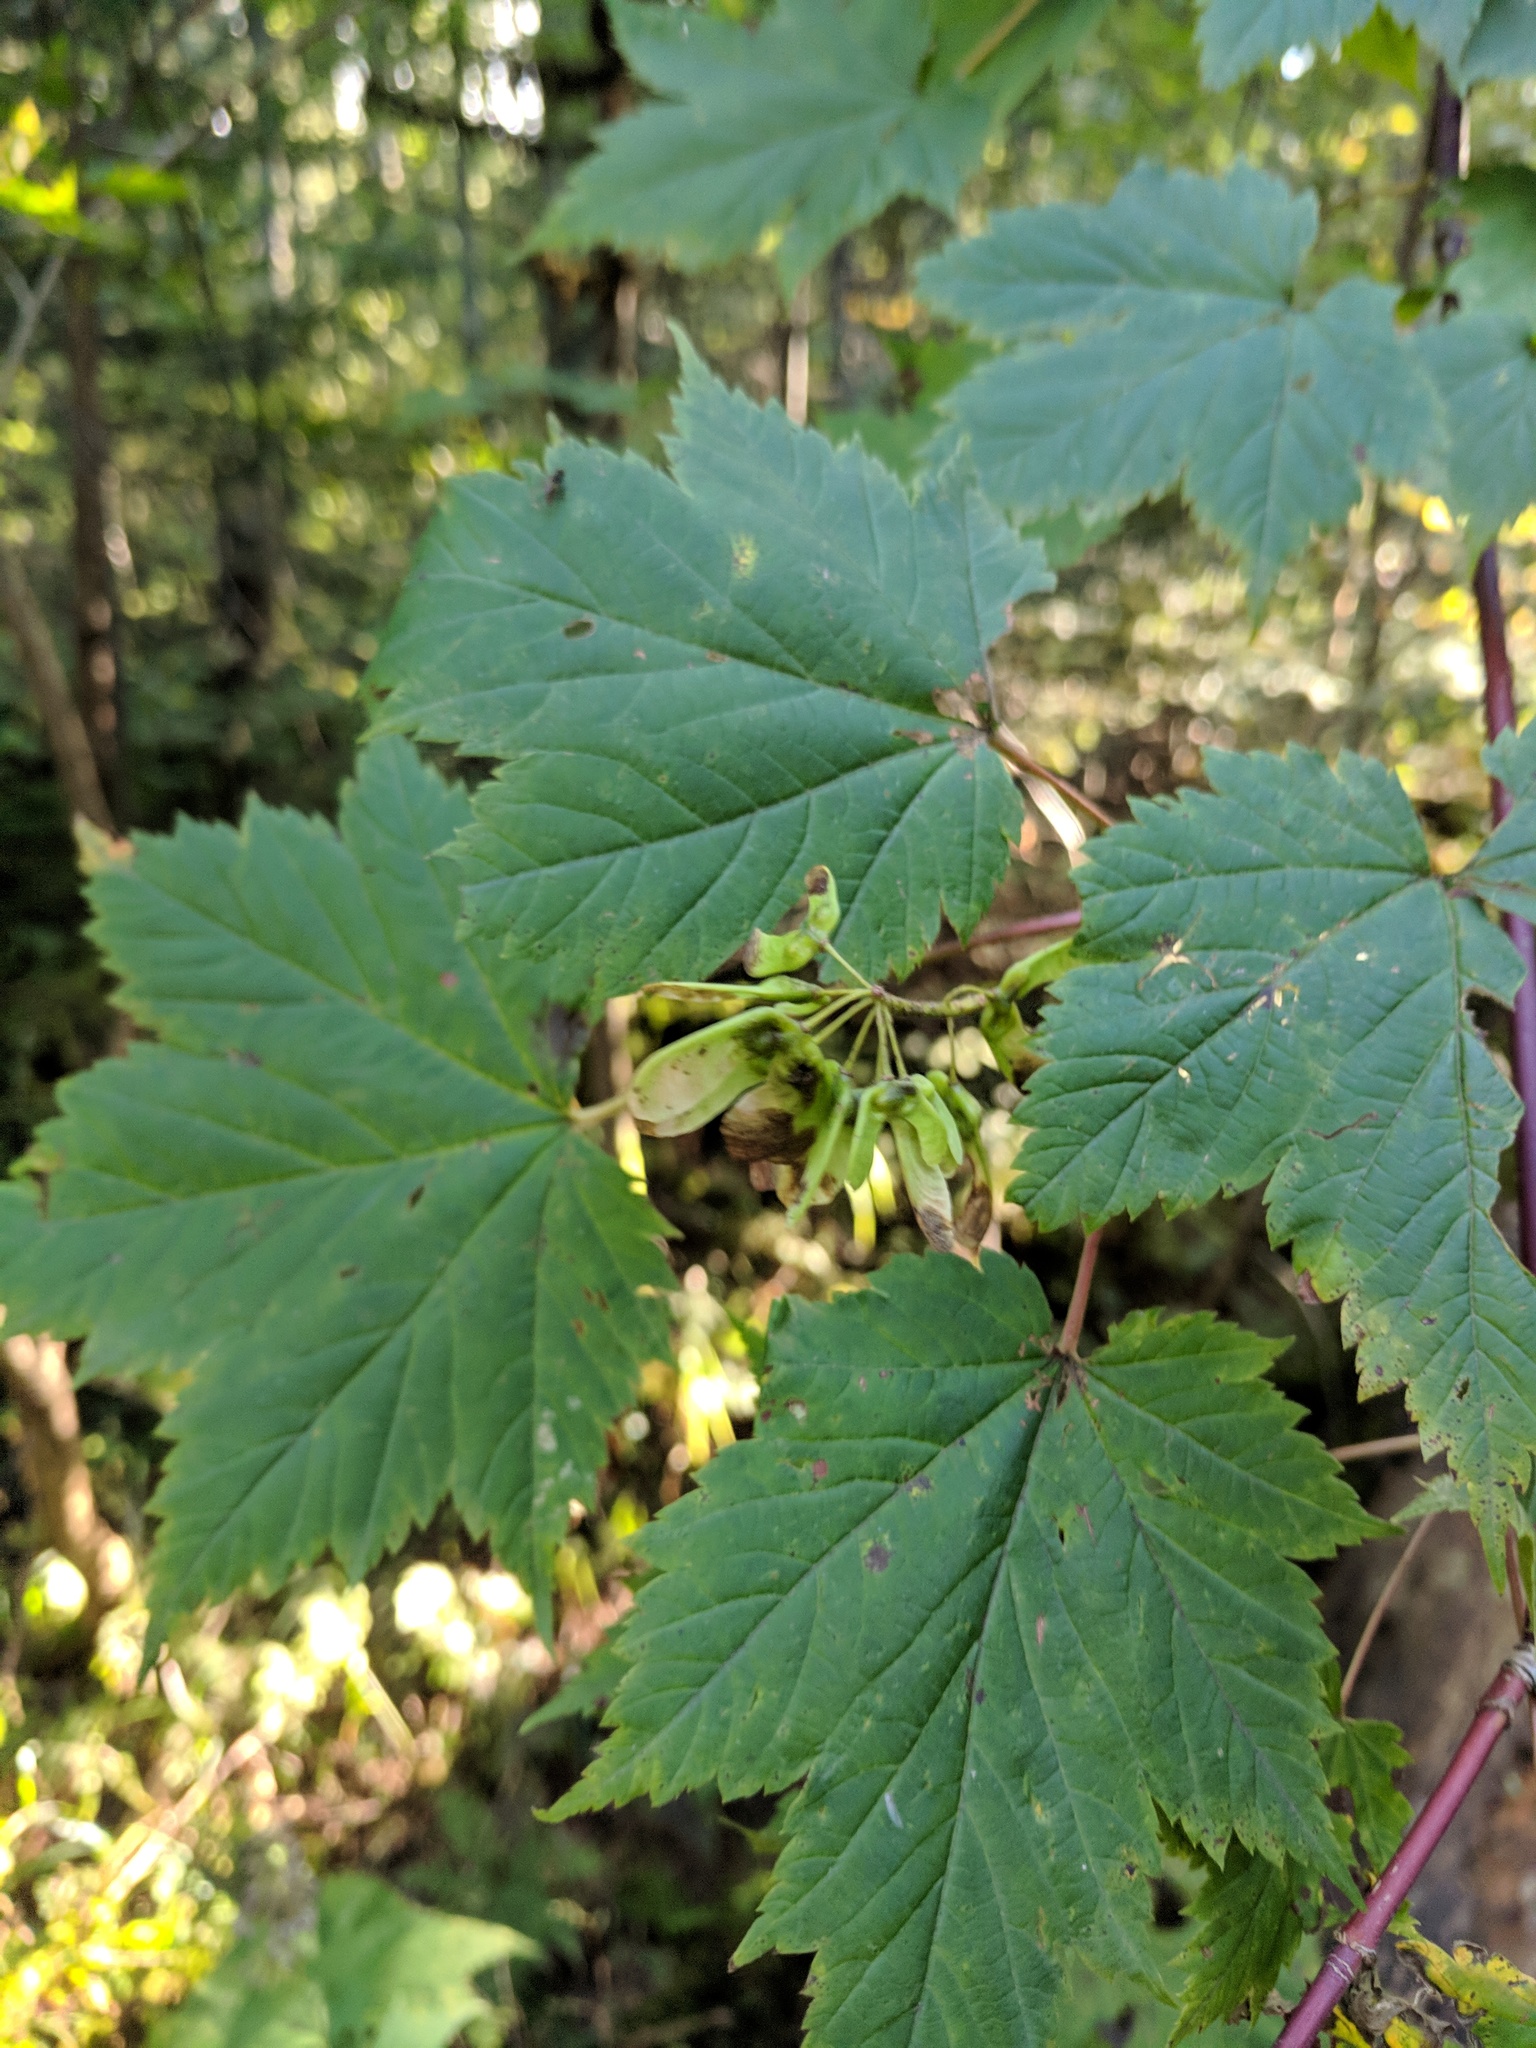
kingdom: Plantae
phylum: Tracheophyta
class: Magnoliopsida
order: Sapindales
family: Sapindaceae
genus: Acer
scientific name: Acer ukurunduense
